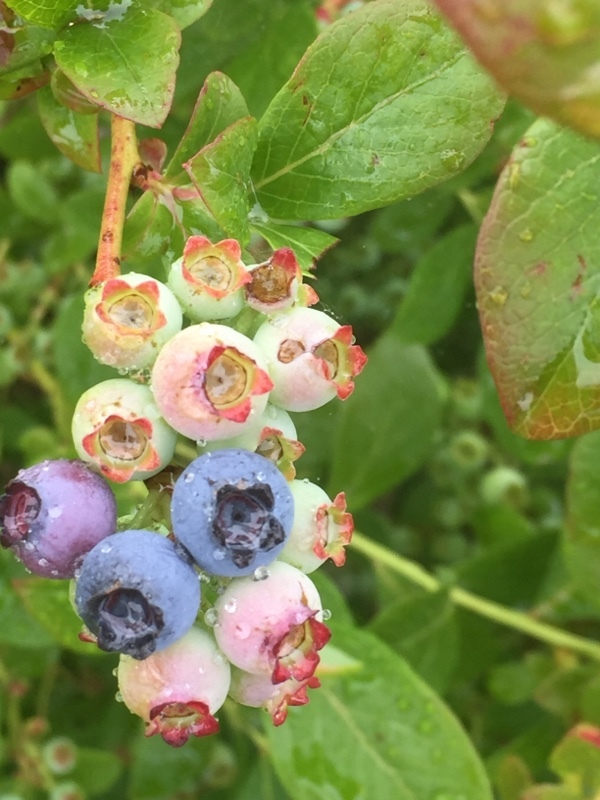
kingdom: Plantae
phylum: Tracheophyta
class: Magnoliopsida
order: Ericales
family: Ericaceae
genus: Vaccinium
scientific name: Vaccinium corymbosum
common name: Blueberry
